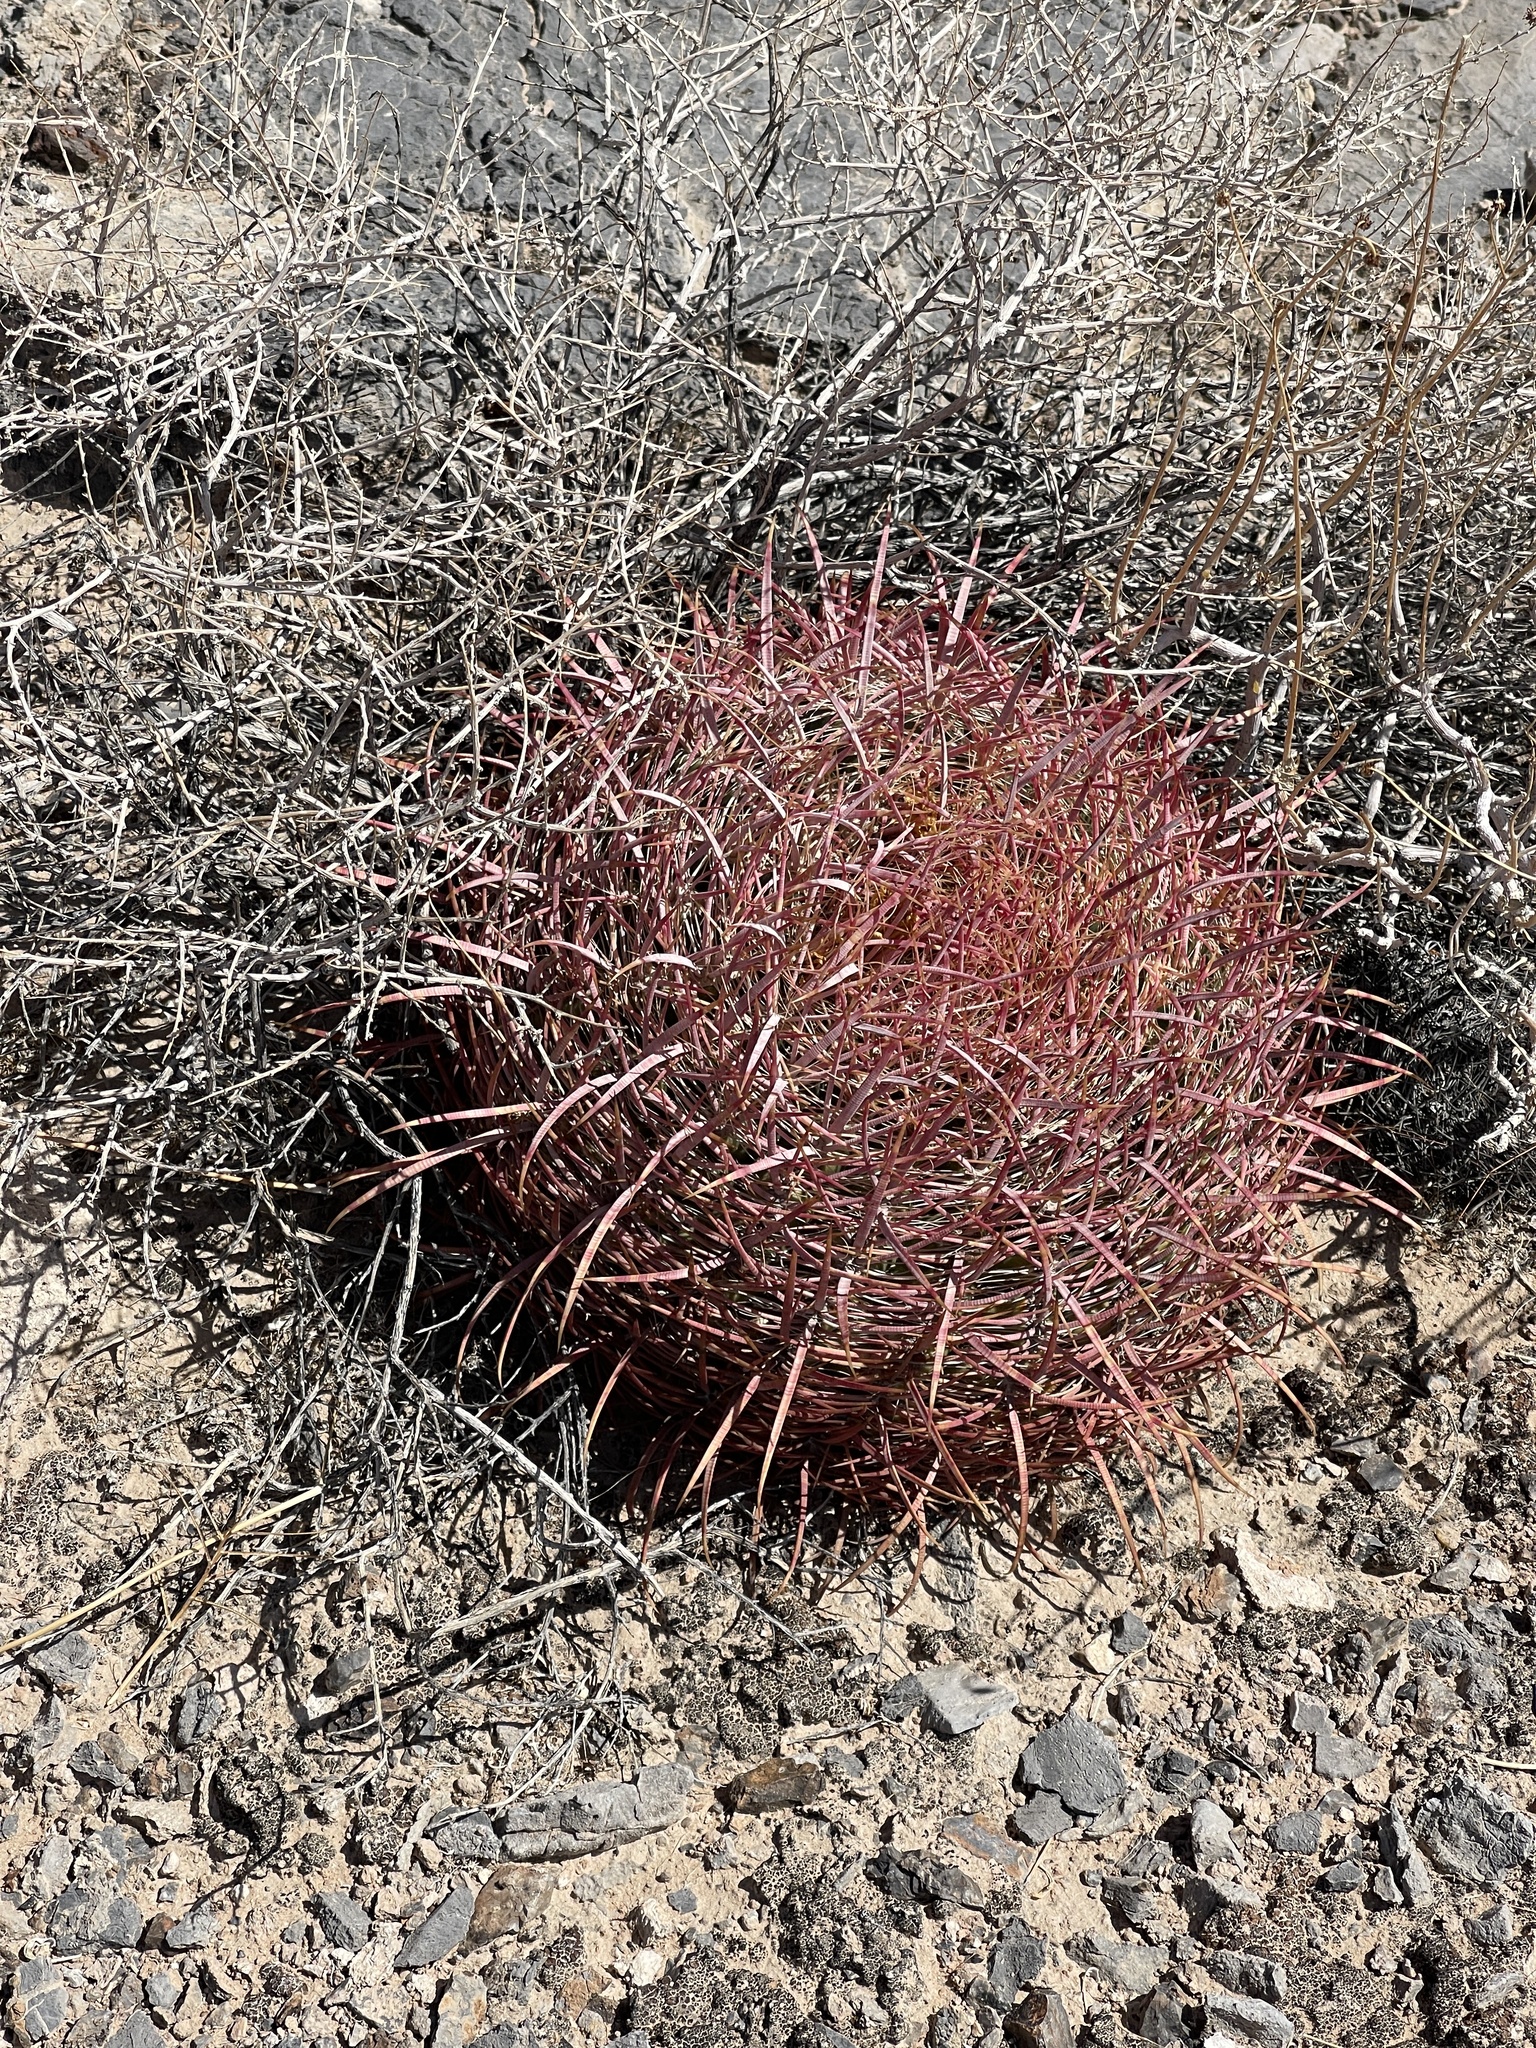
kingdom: Plantae
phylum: Tracheophyta
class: Magnoliopsida
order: Caryophyllales
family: Cactaceae
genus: Ferocactus
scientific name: Ferocactus cylindraceus
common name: California barrel cactus
